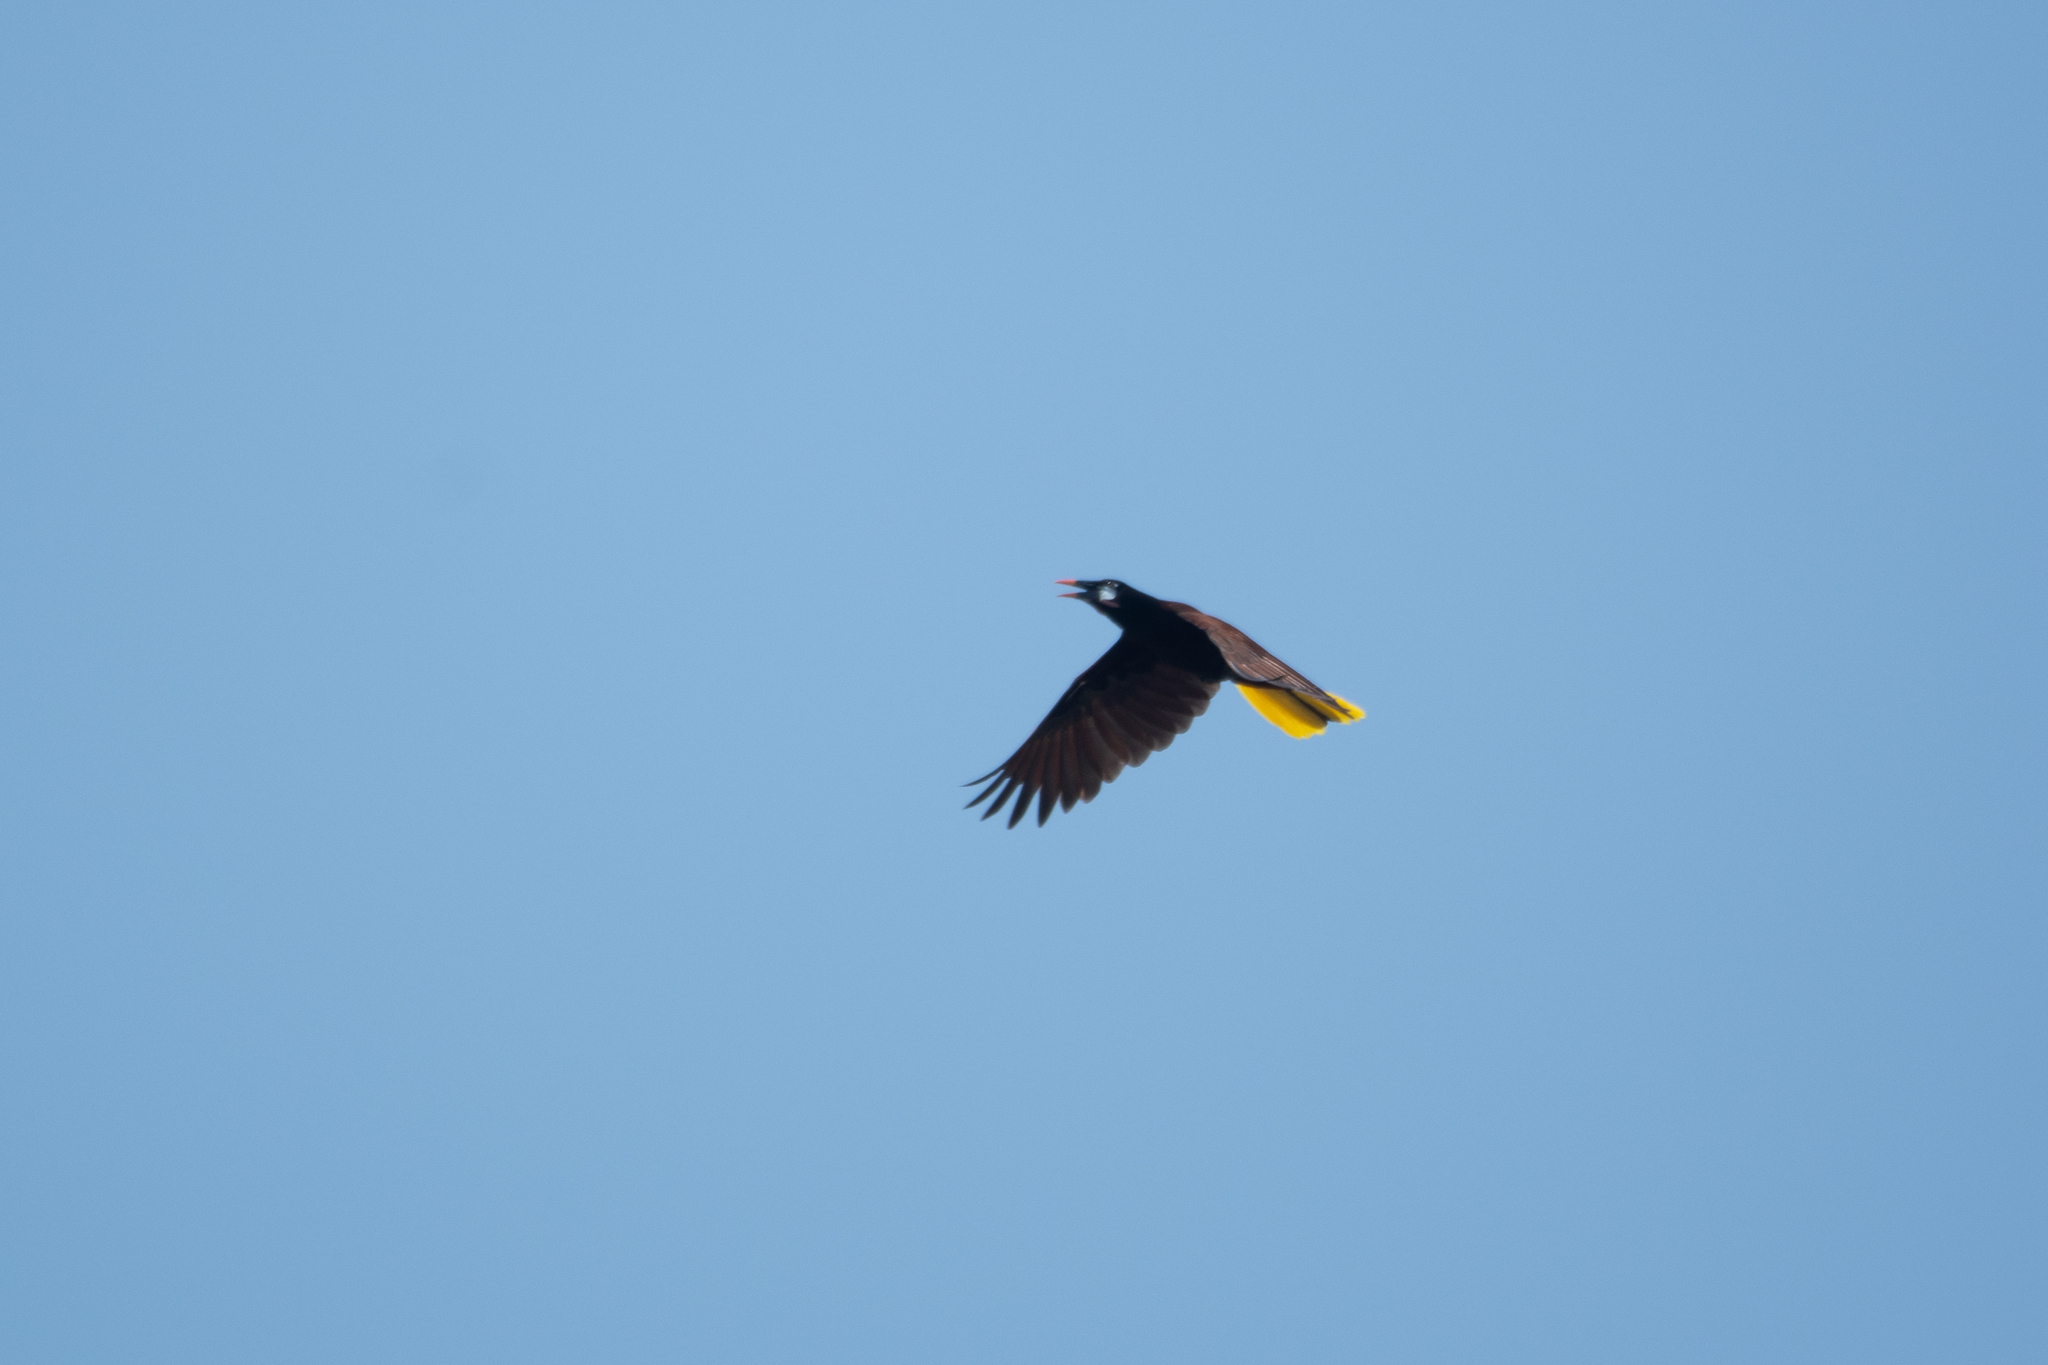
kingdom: Animalia
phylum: Chordata
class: Aves
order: Passeriformes
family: Icteridae
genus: Psarocolius
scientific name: Psarocolius montezuma
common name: Montezuma oropendola
